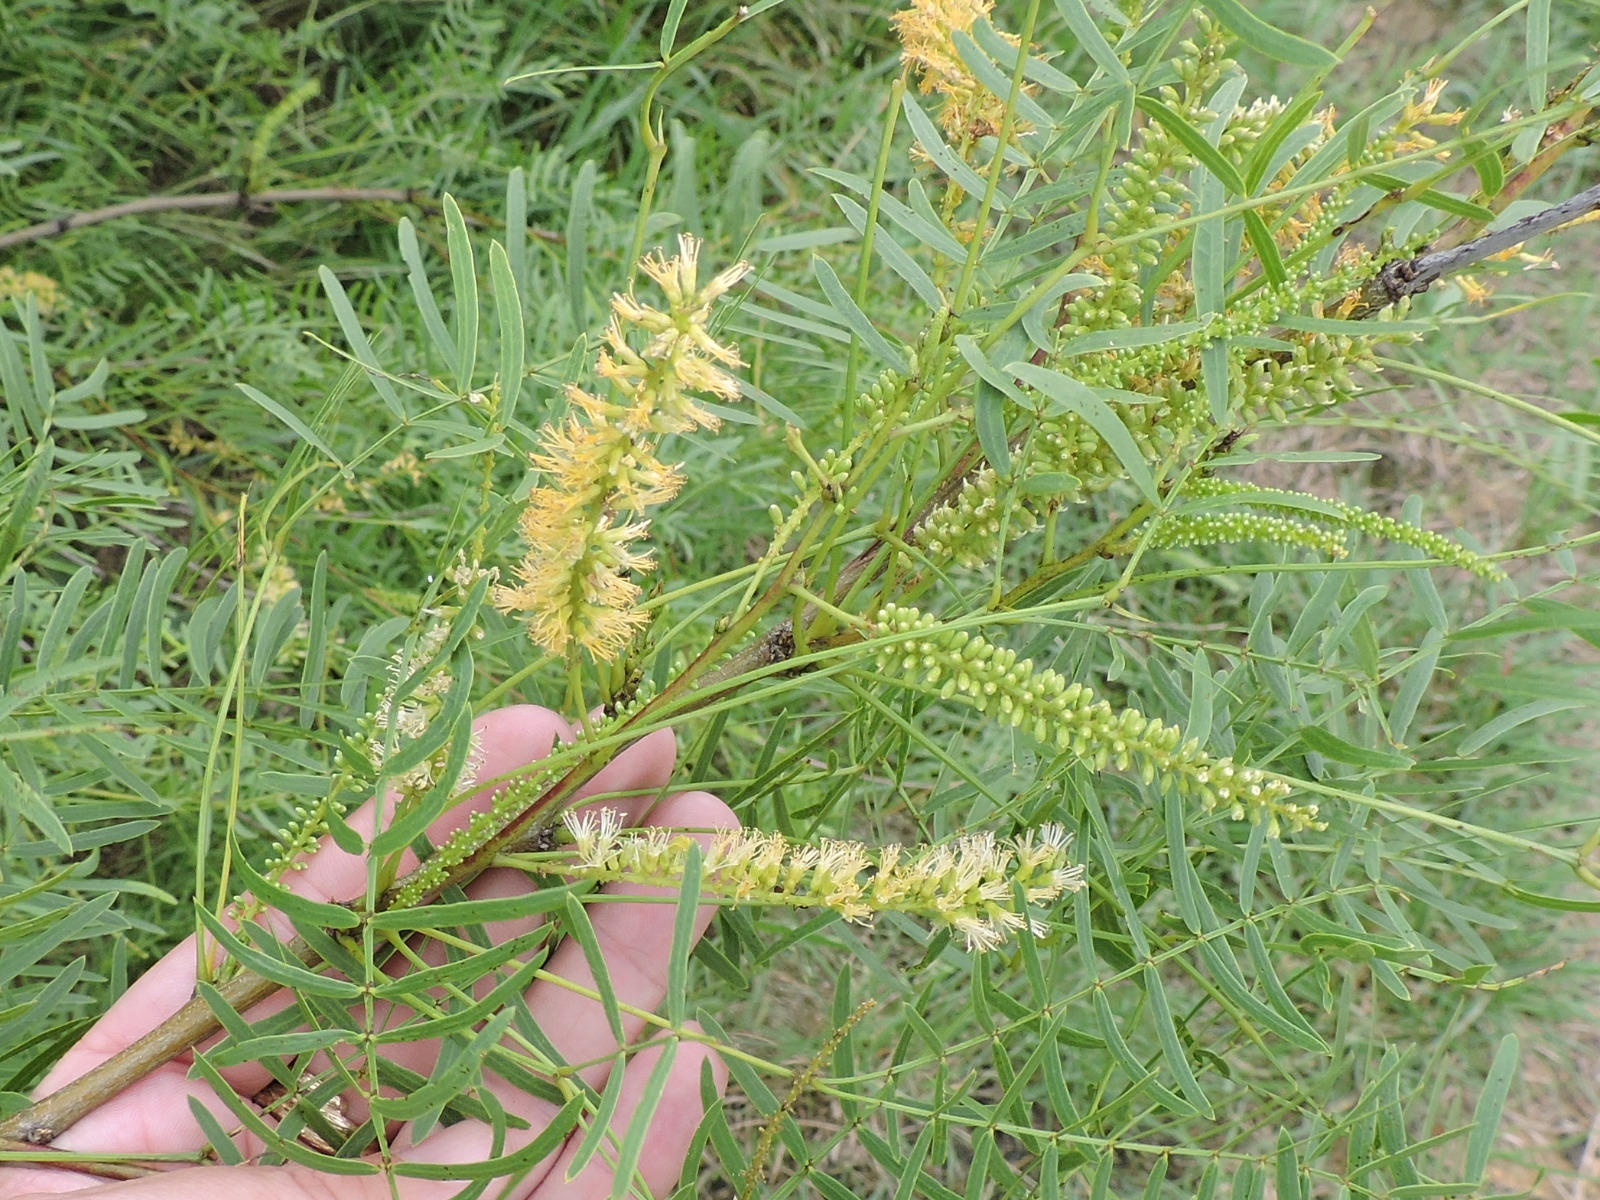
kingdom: Plantae
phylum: Tracheophyta
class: Magnoliopsida
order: Fabales
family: Fabaceae
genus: Prosopis
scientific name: Prosopis glandulosa
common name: Honey mesquite
